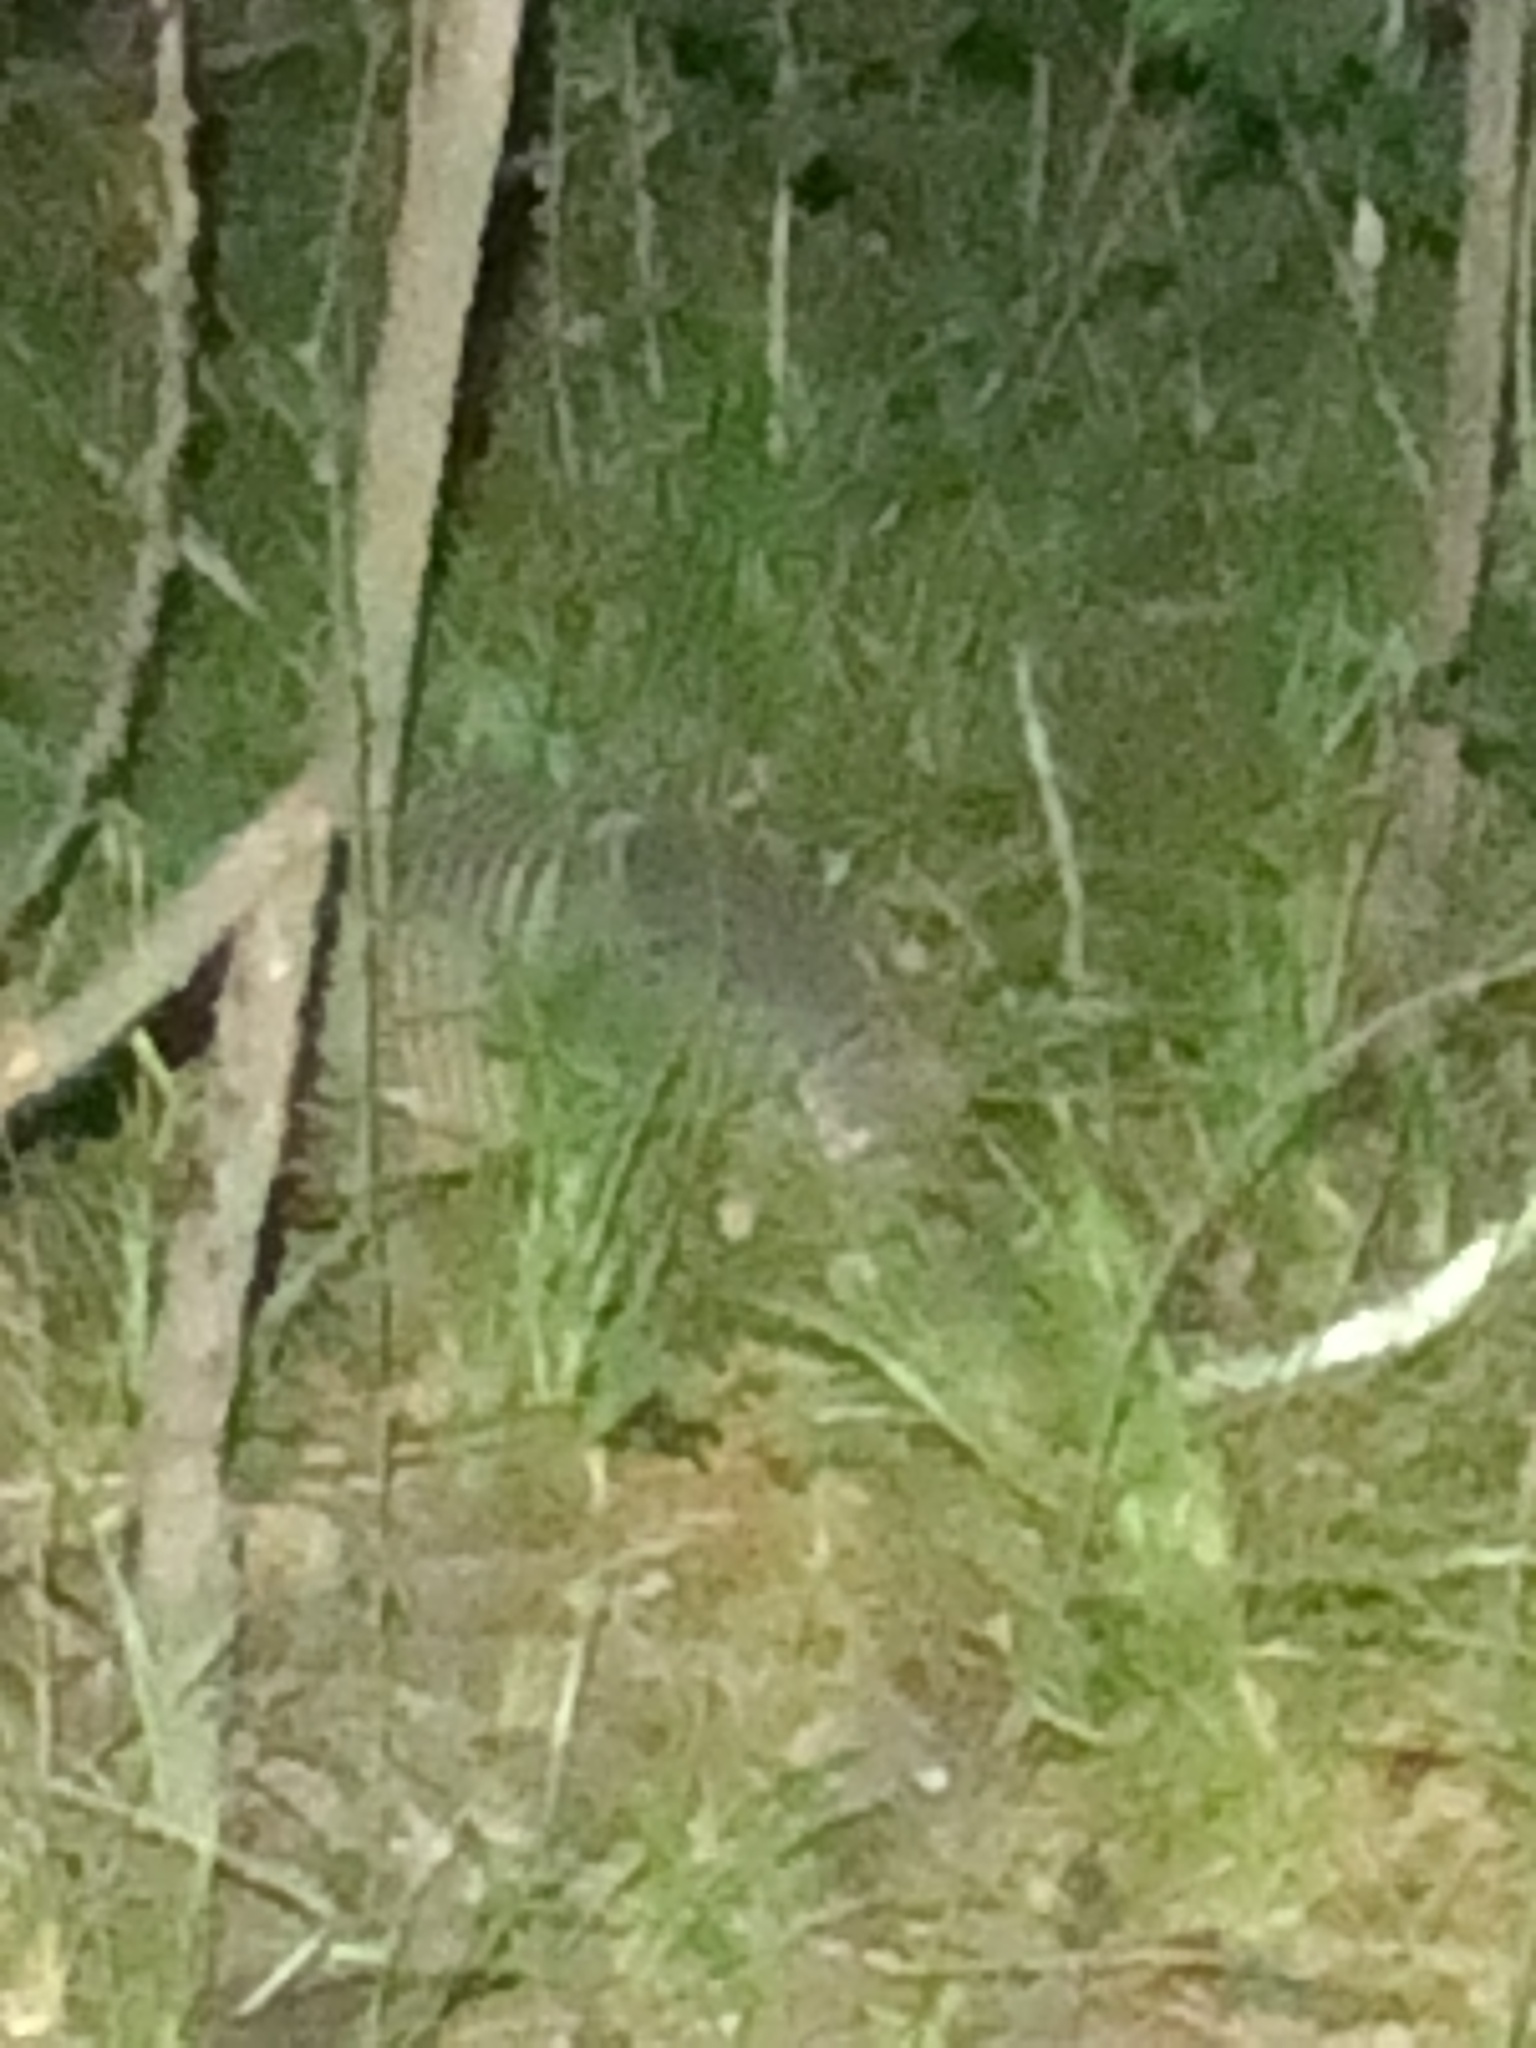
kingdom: Animalia
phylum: Chordata
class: Mammalia
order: Cingulata
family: Dasypodidae
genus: Dasypus
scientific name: Dasypus novemcinctus
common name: Nine-banded armadillo
